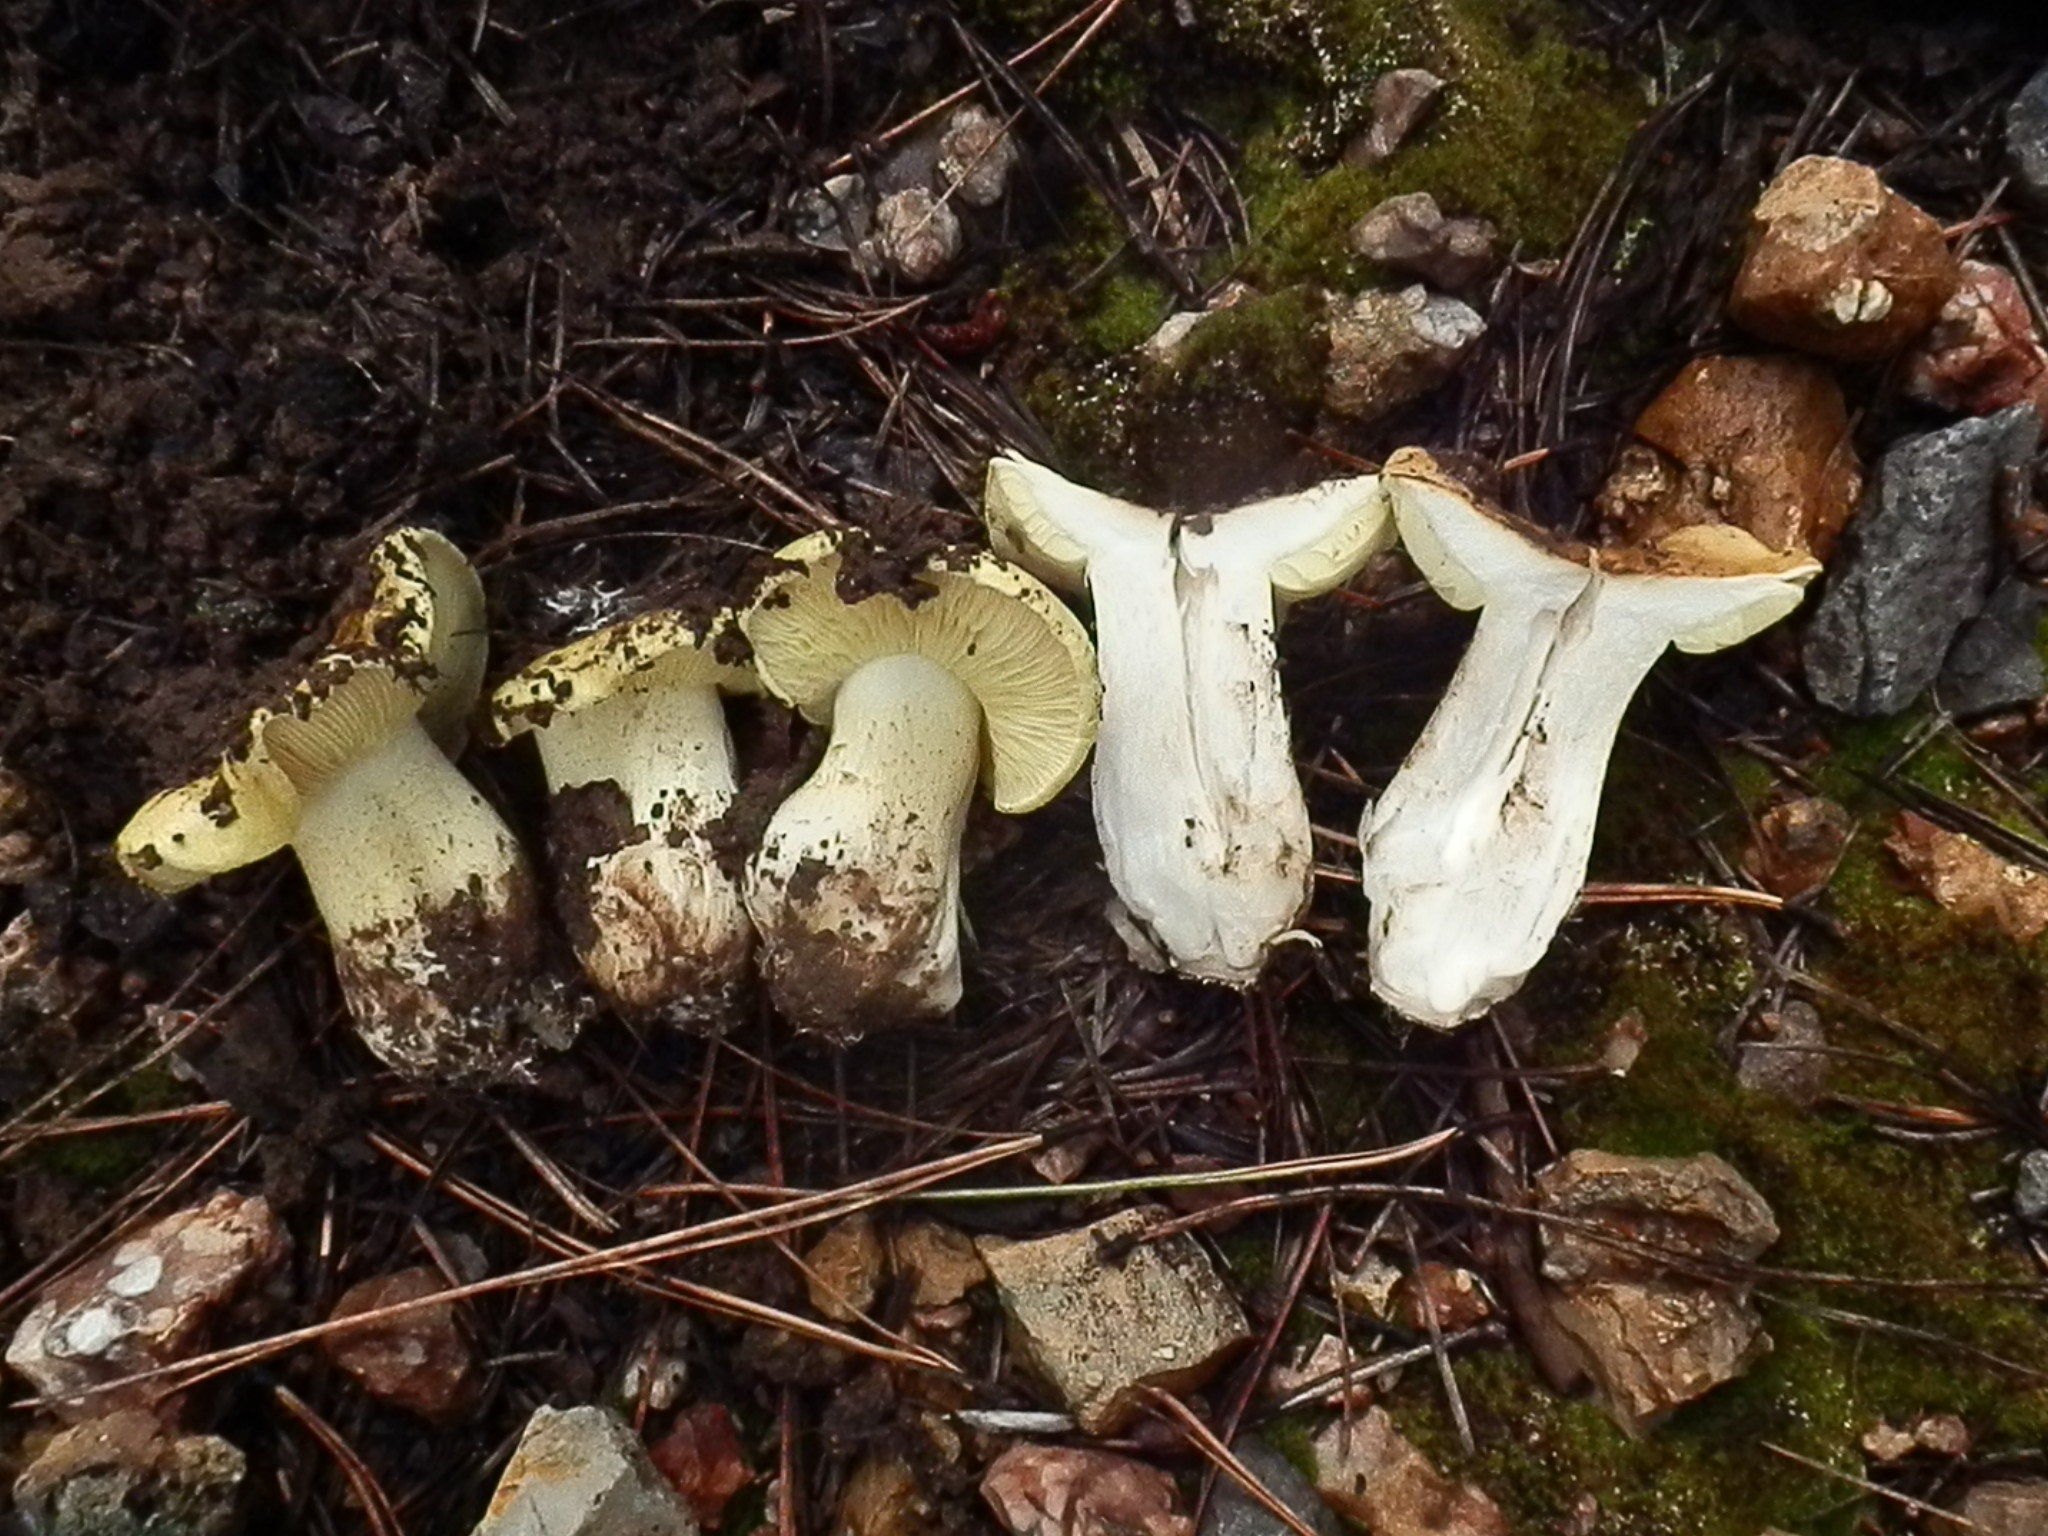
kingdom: Fungi
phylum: Basidiomycota
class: Agaricomycetes
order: Agaricales
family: Tricholomataceae
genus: Tricholoma
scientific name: Tricholoma equestre
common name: Yellow knight
